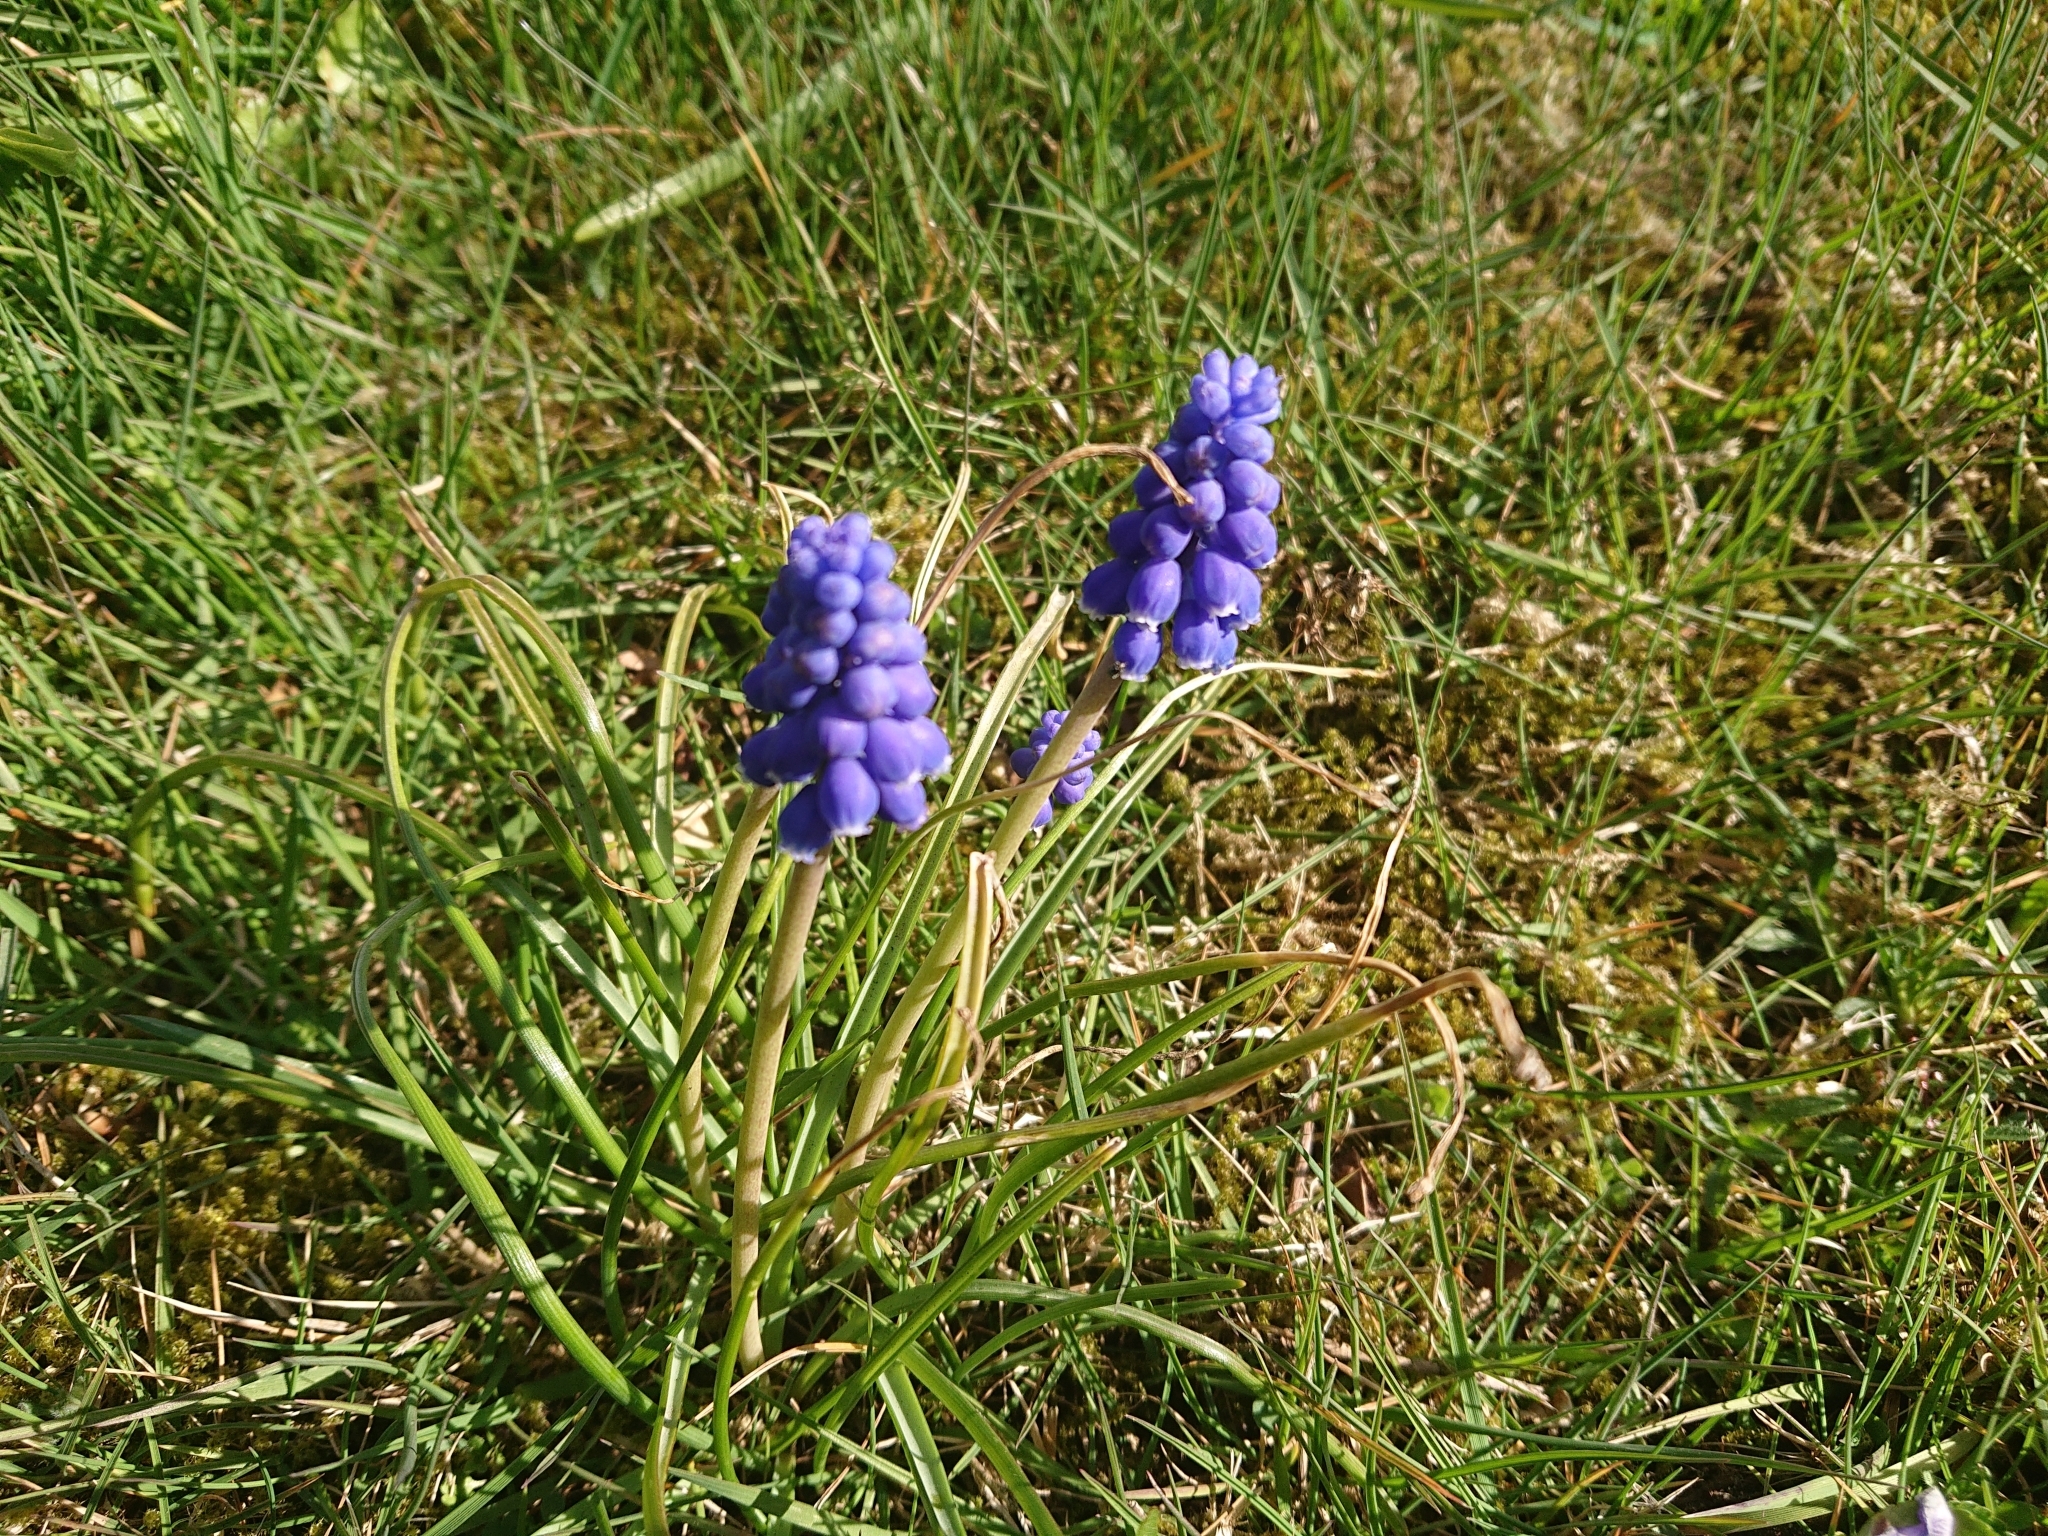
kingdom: Plantae
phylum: Tracheophyta
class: Liliopsida
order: Asparagales
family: Asparagaceae
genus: Muscari
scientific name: Muscari armeniacum
